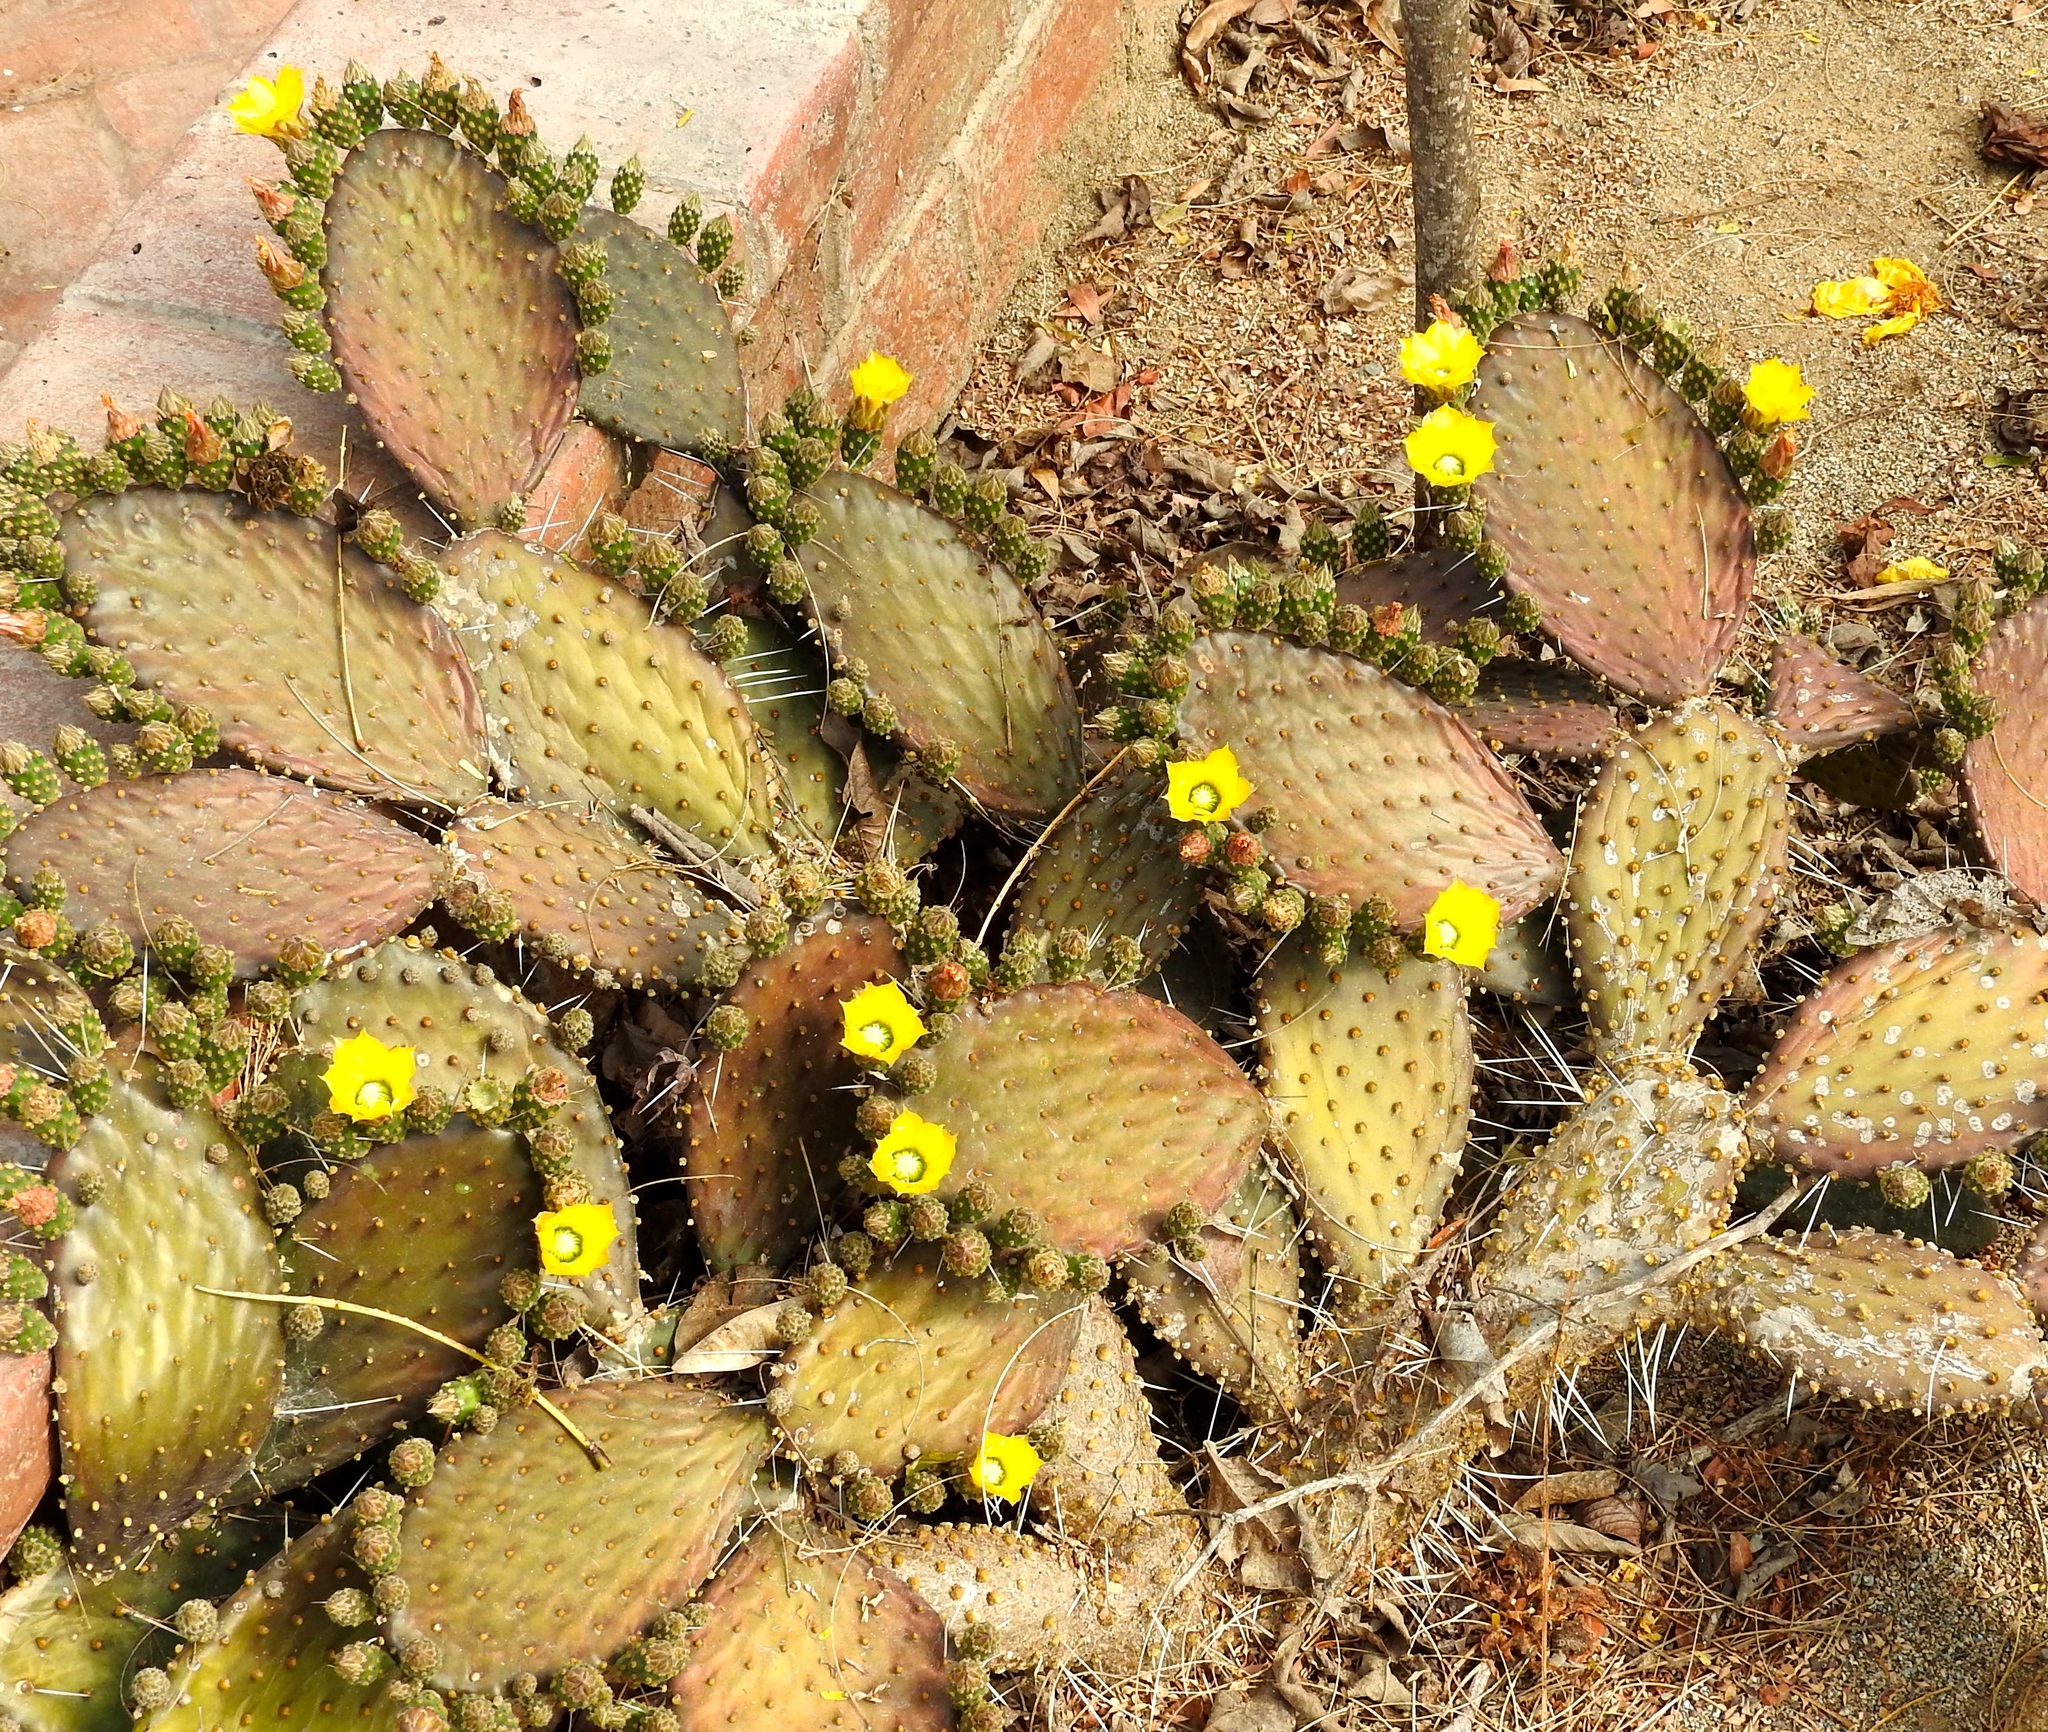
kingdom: Plantae
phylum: Tracheophyta
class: Magnoliopsida
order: Caryophyllales
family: Cactaceae
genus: Opuntia
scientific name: Opuntia decumbens
